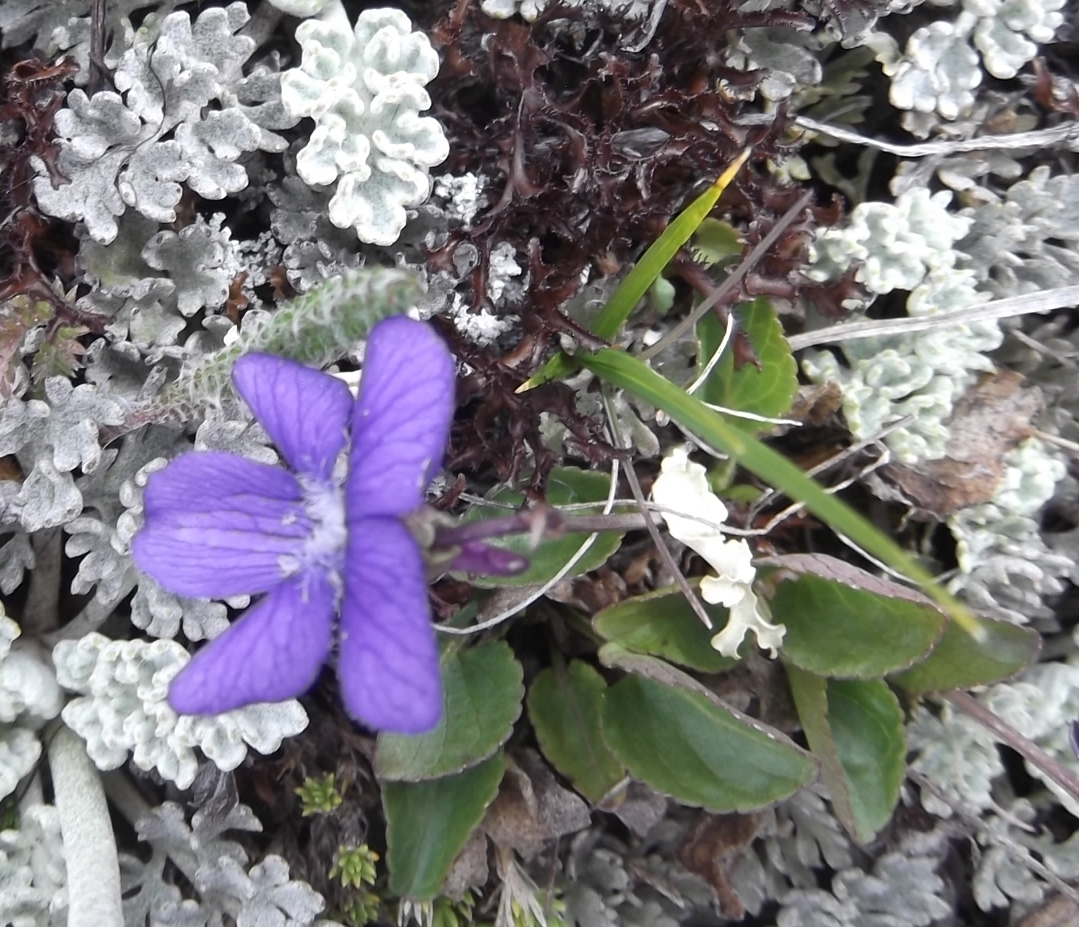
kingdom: Plantae
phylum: Tracheophyta
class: Magnoliopsida
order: Malpighiales
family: Violaceae
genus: Viola
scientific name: Viola adunca
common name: Sand violet
